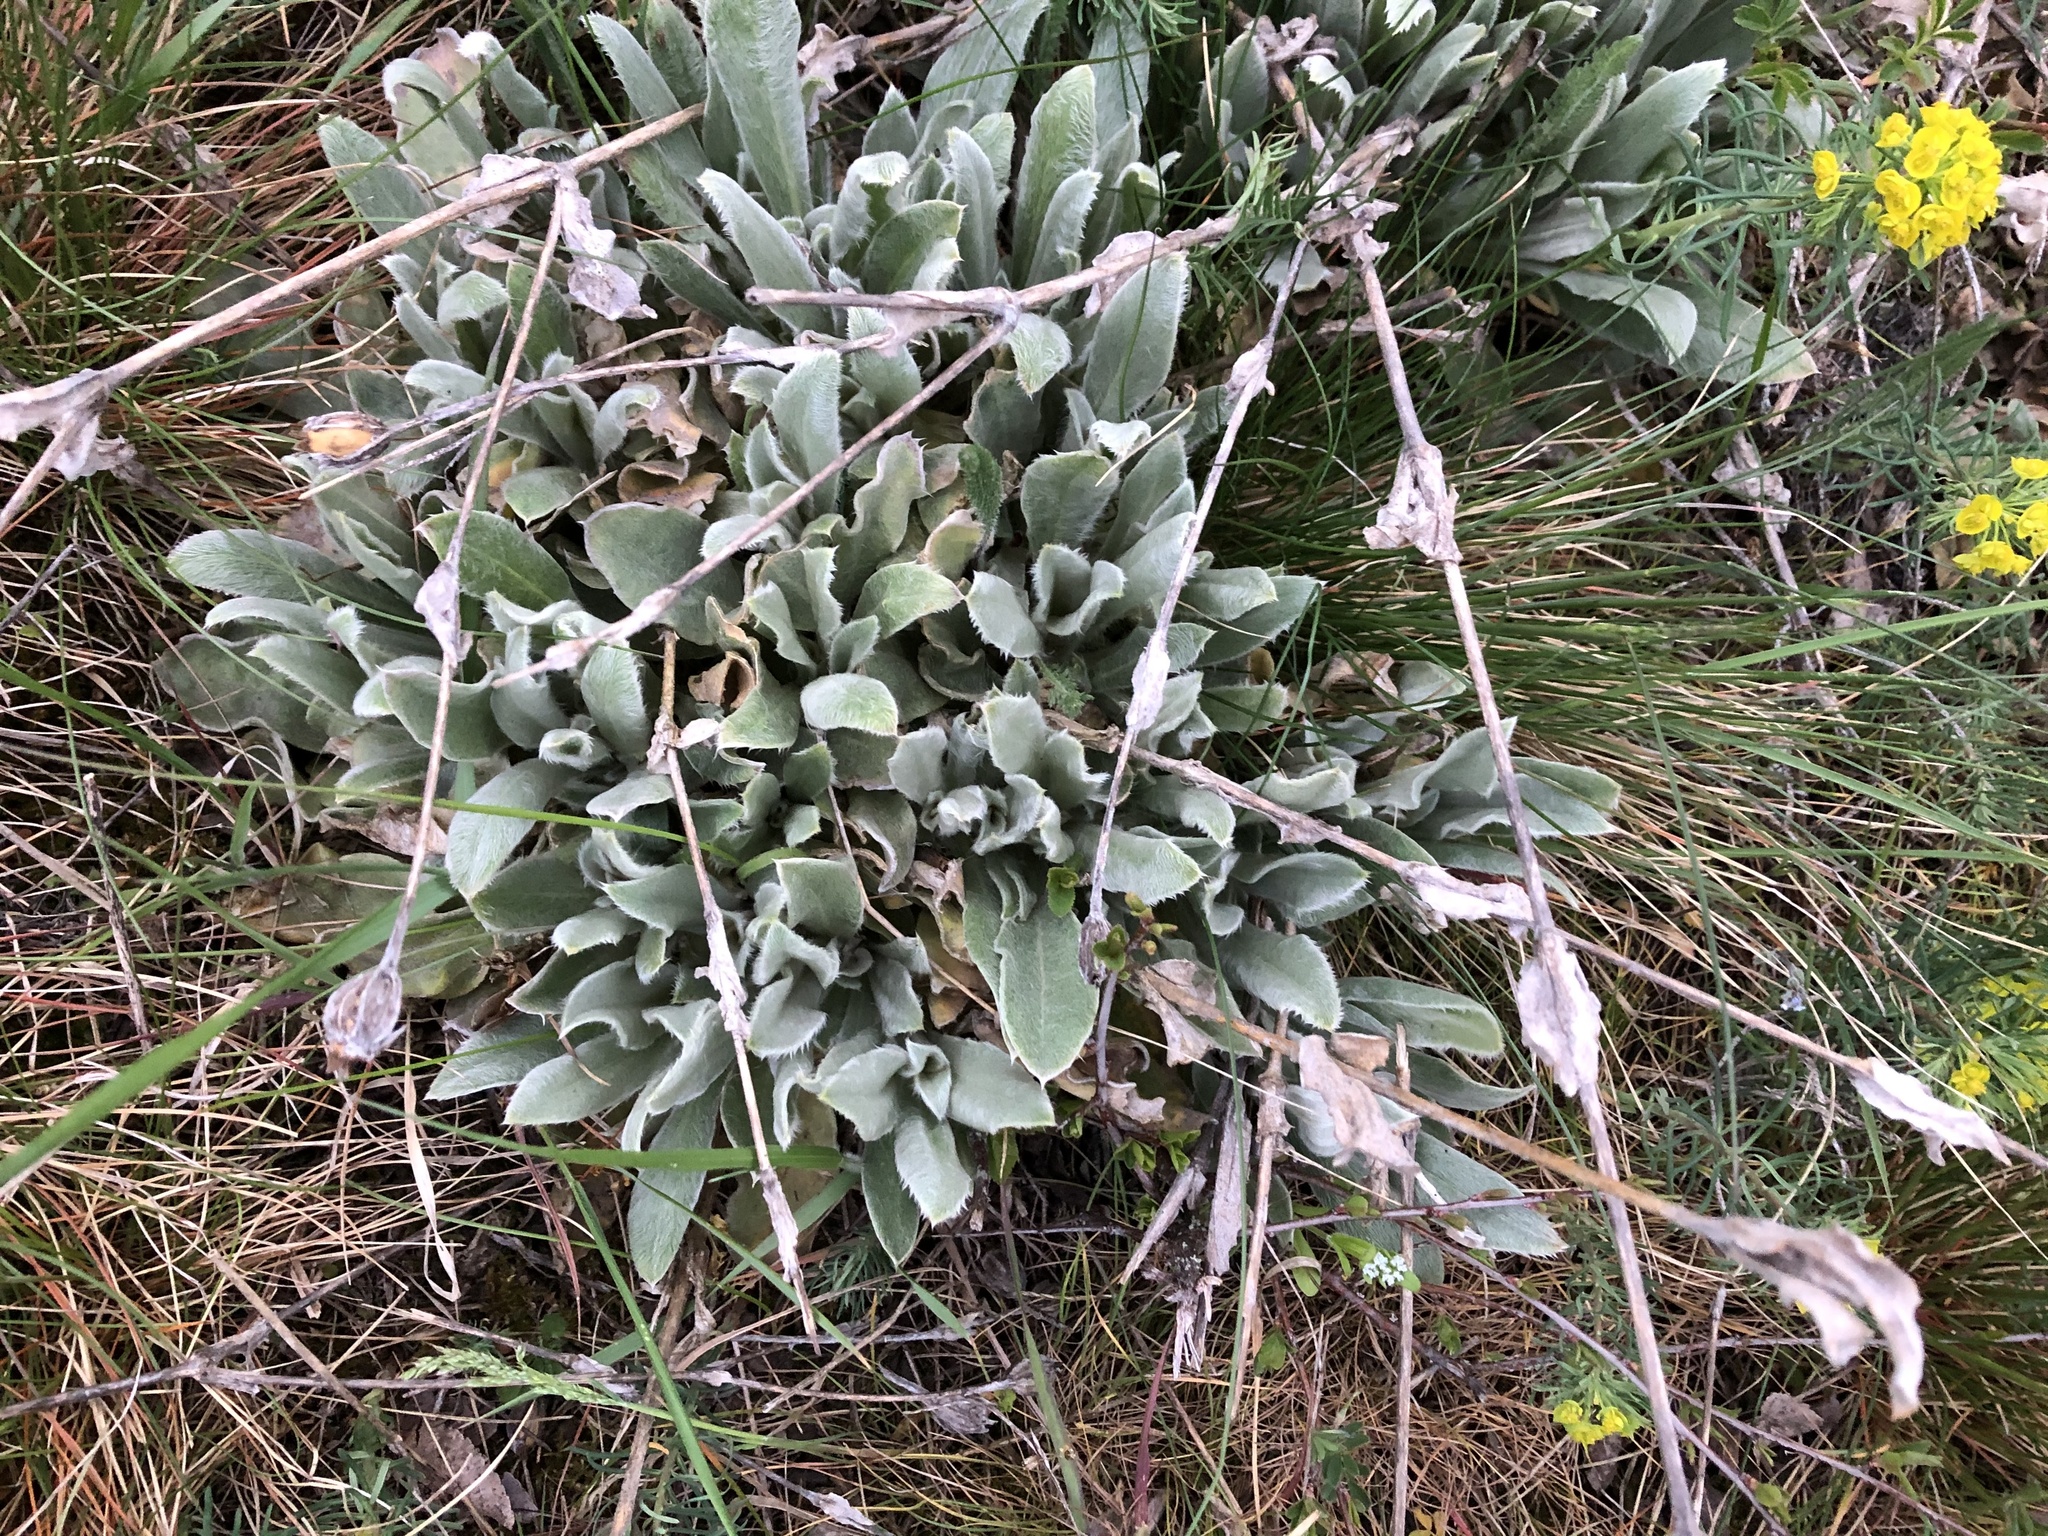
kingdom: Plantae
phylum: Tracheophyta
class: Magnoliopsida
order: Caryophyllales
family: Caryophyllaceae
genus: Silene
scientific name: Silene coronaria
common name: Rose campion
